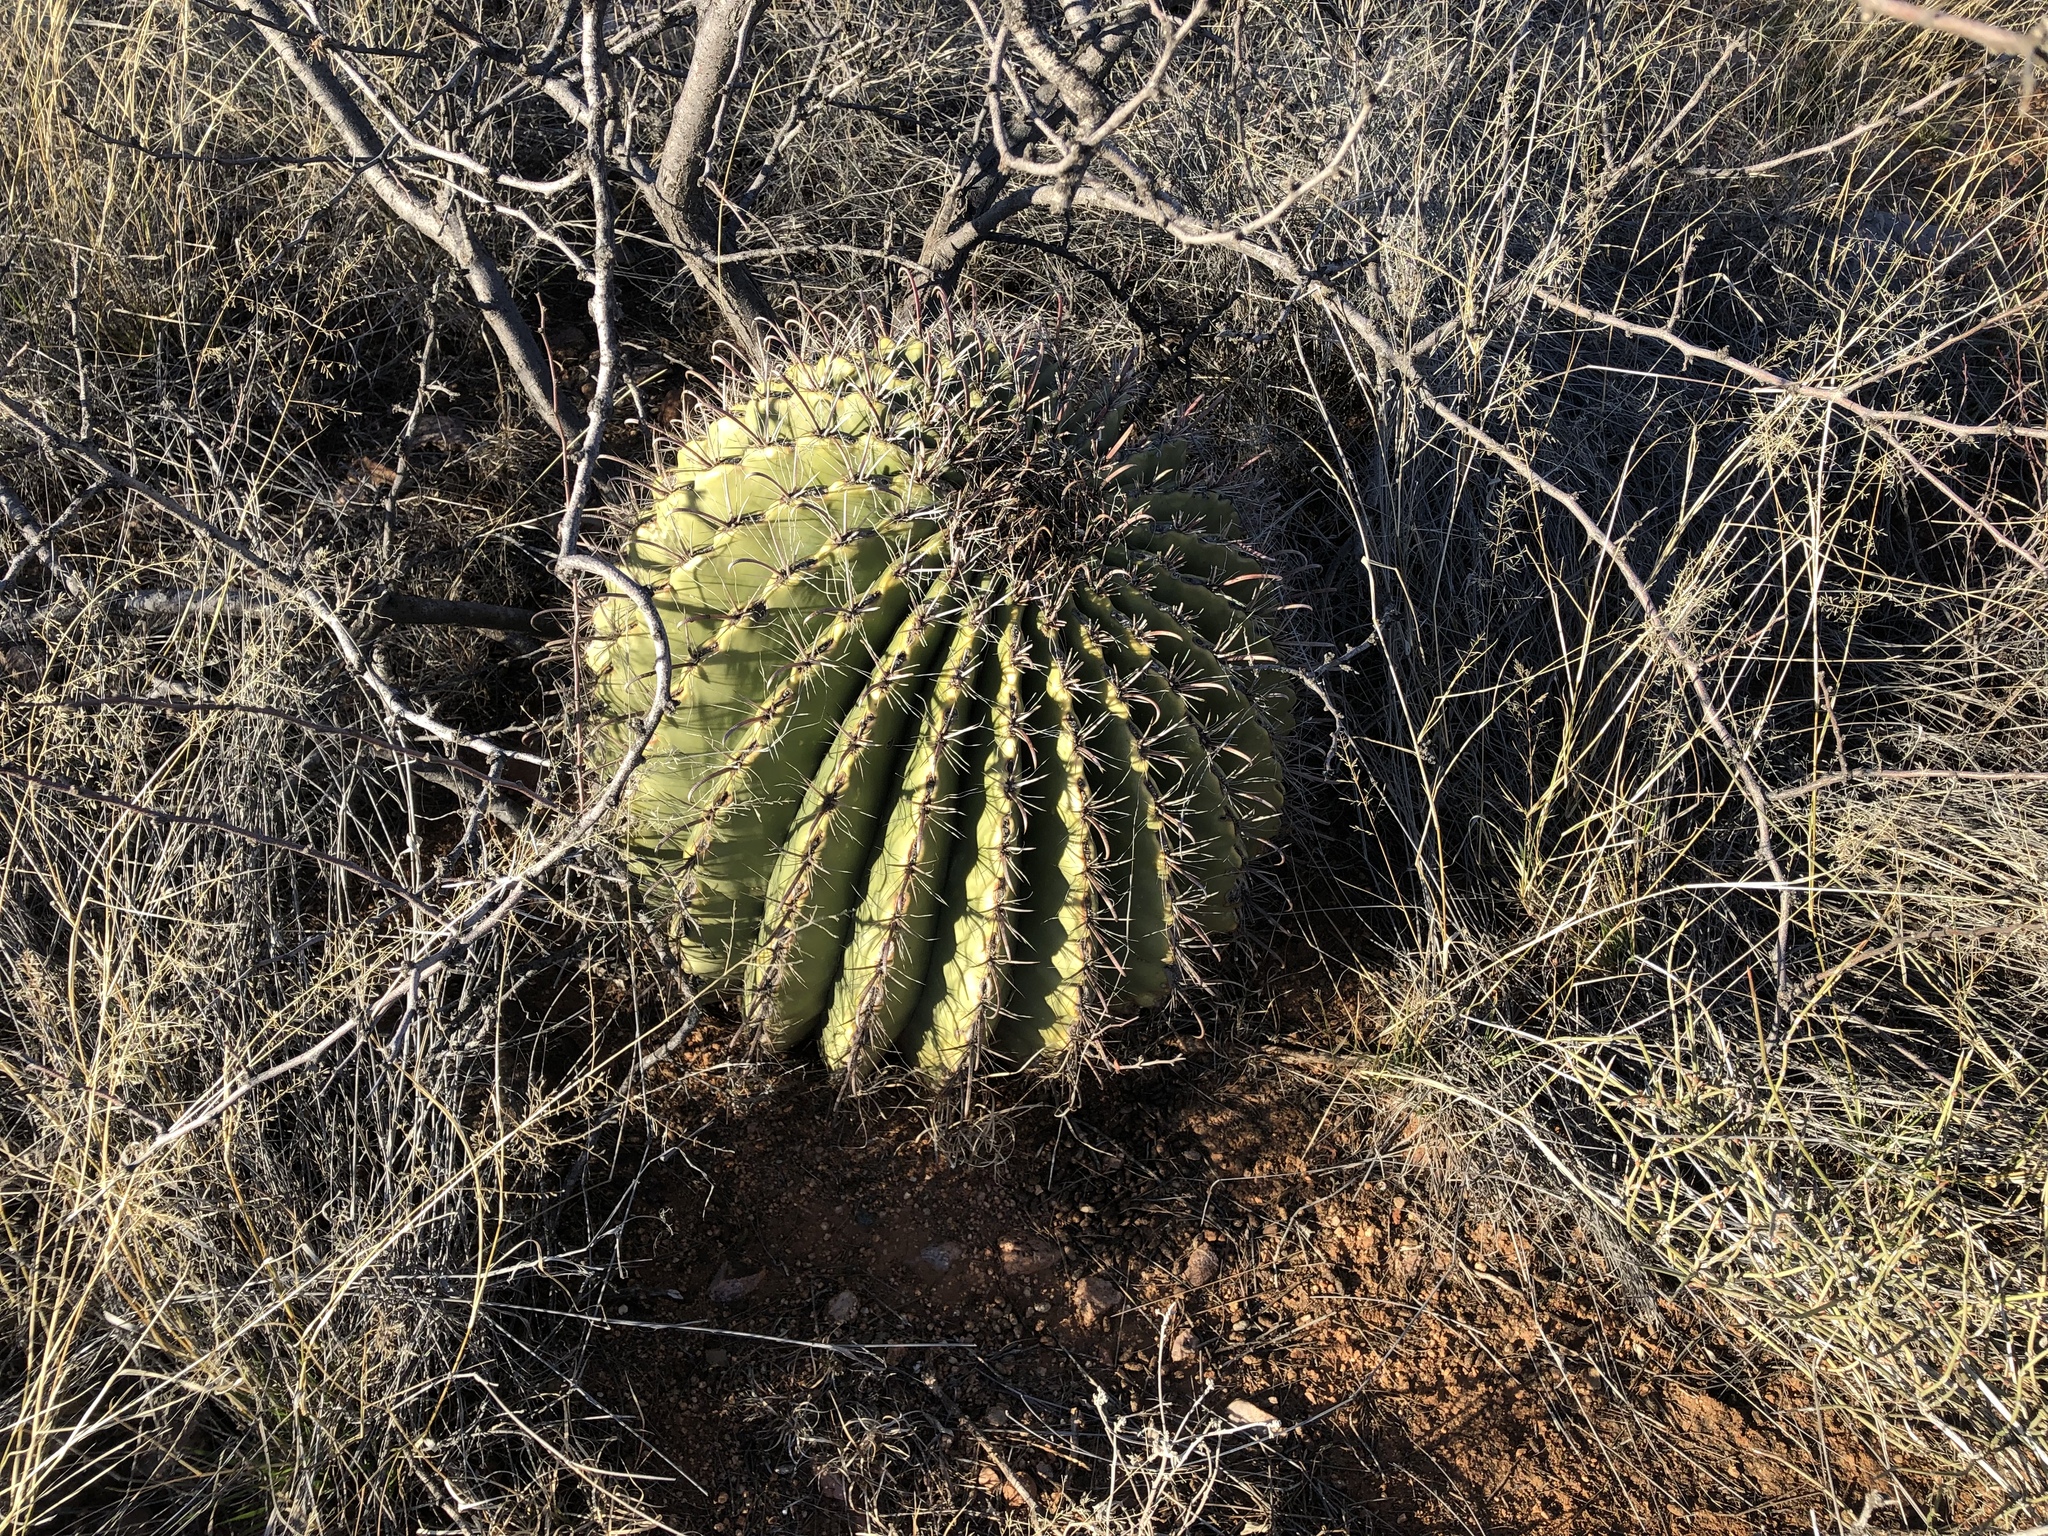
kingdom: Plantae
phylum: Tracheophyta
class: Magnoliopsida
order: Caryophyllales
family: Cactaceae
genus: Ferocactus
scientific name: Ferocactus wislizeni
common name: Candy barrel cactus
